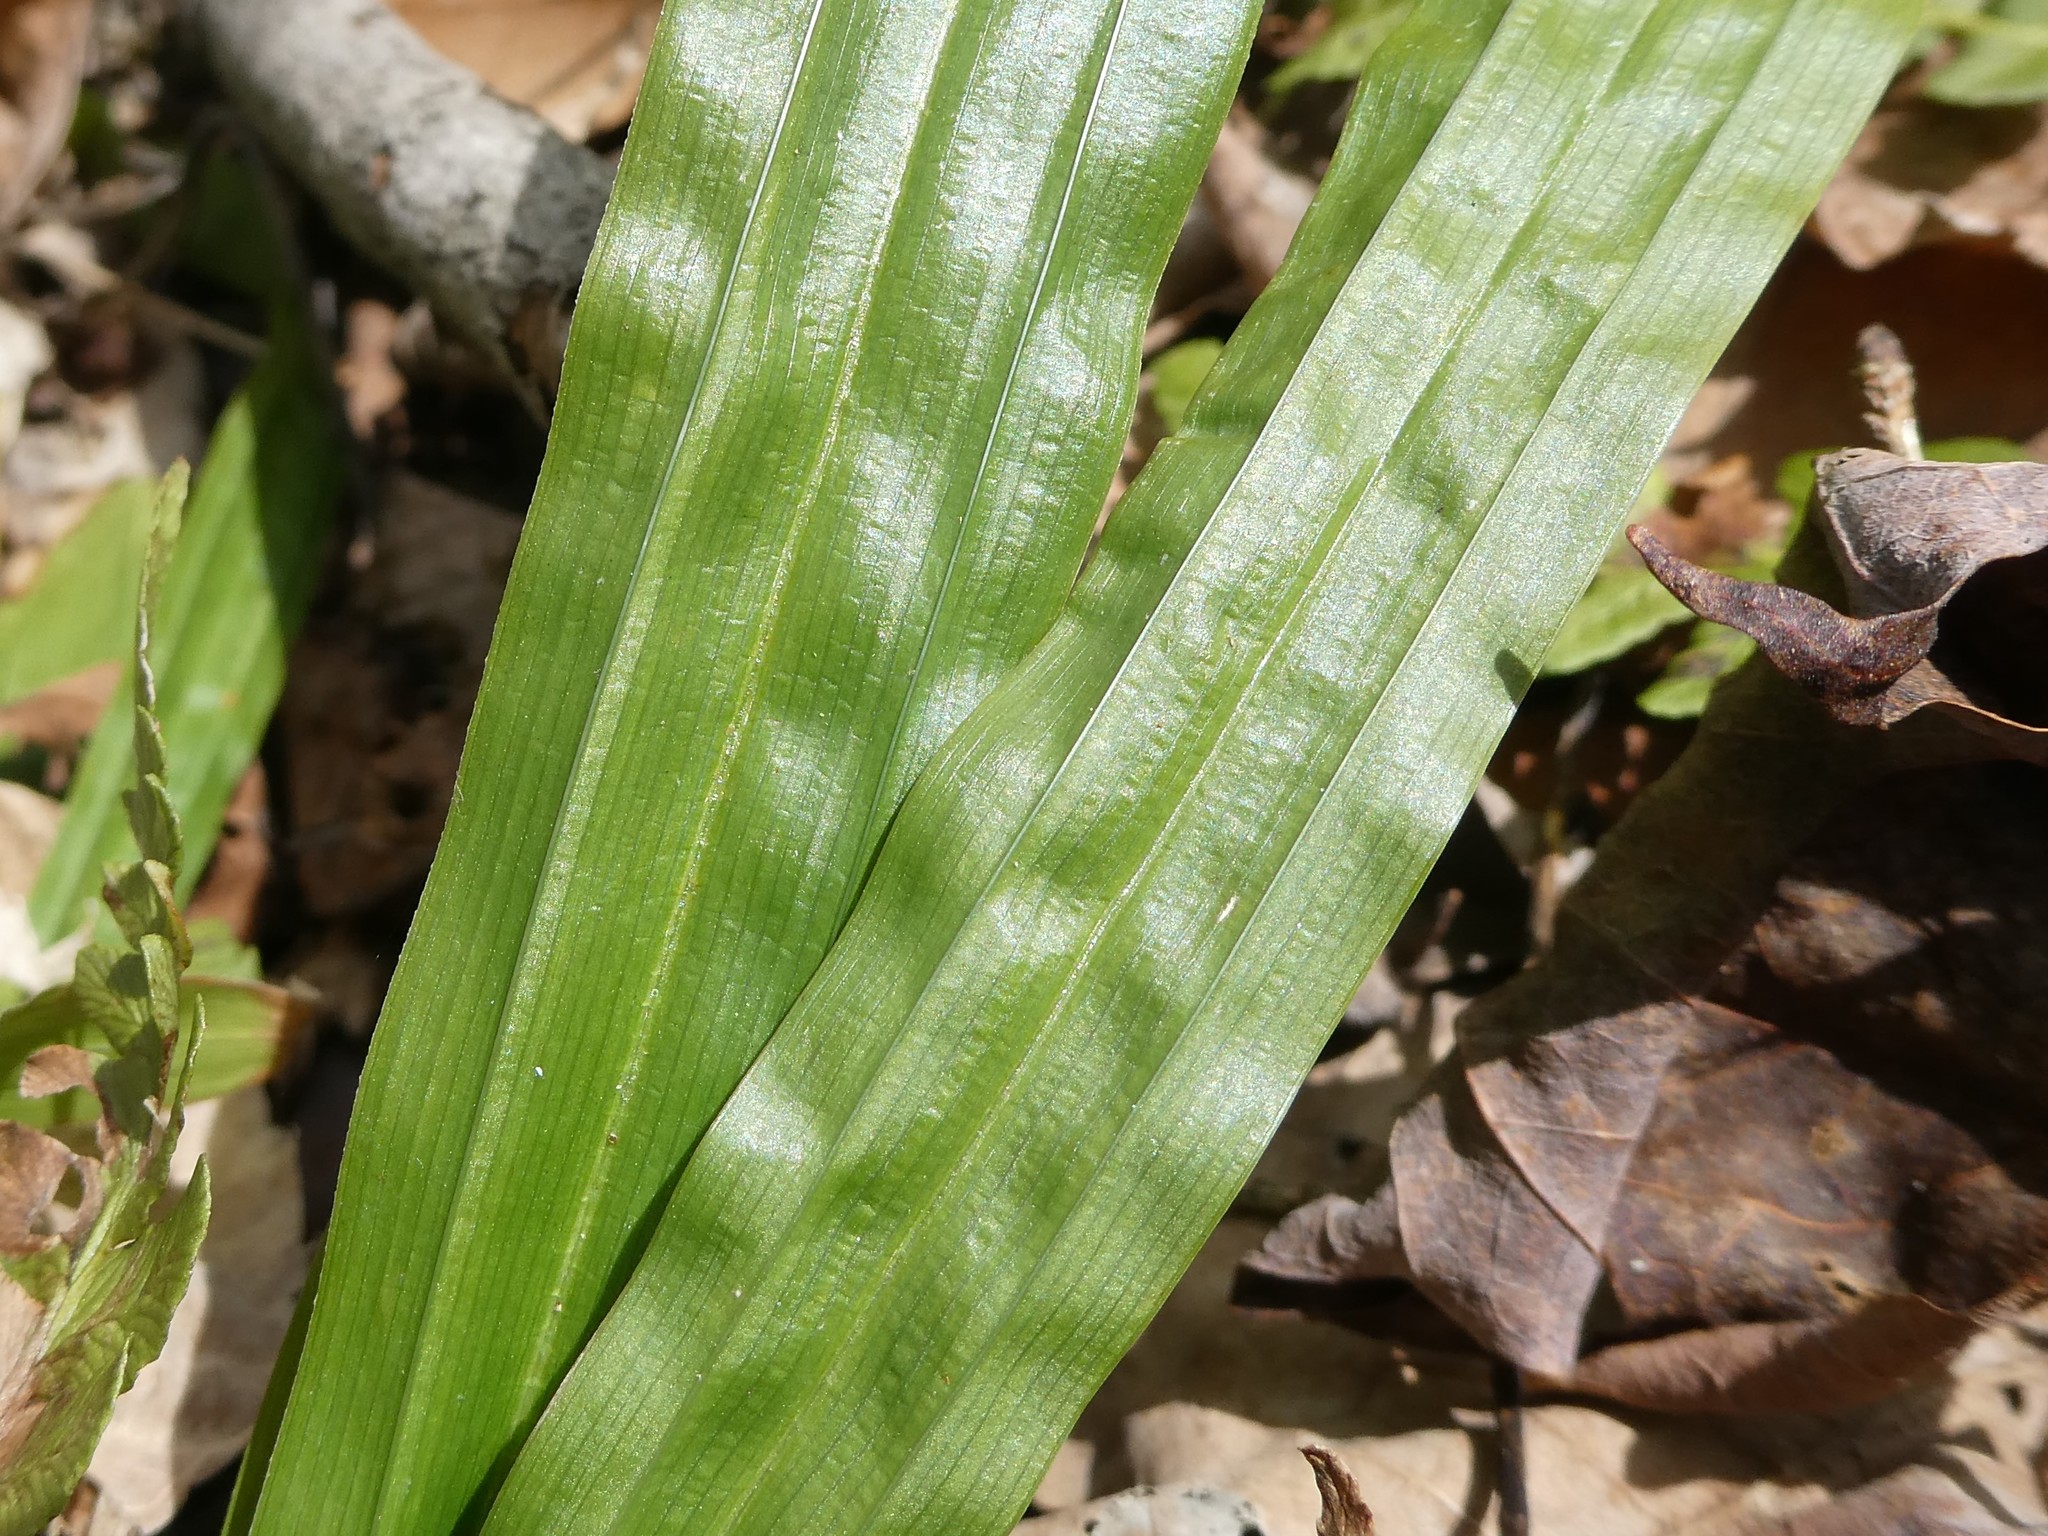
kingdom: Plantae
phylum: Tracheophyta
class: Liliopsida
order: Poales
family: Cyperaceae
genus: Carex
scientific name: Carex plantaginea
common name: Plantain-leaved sedge
